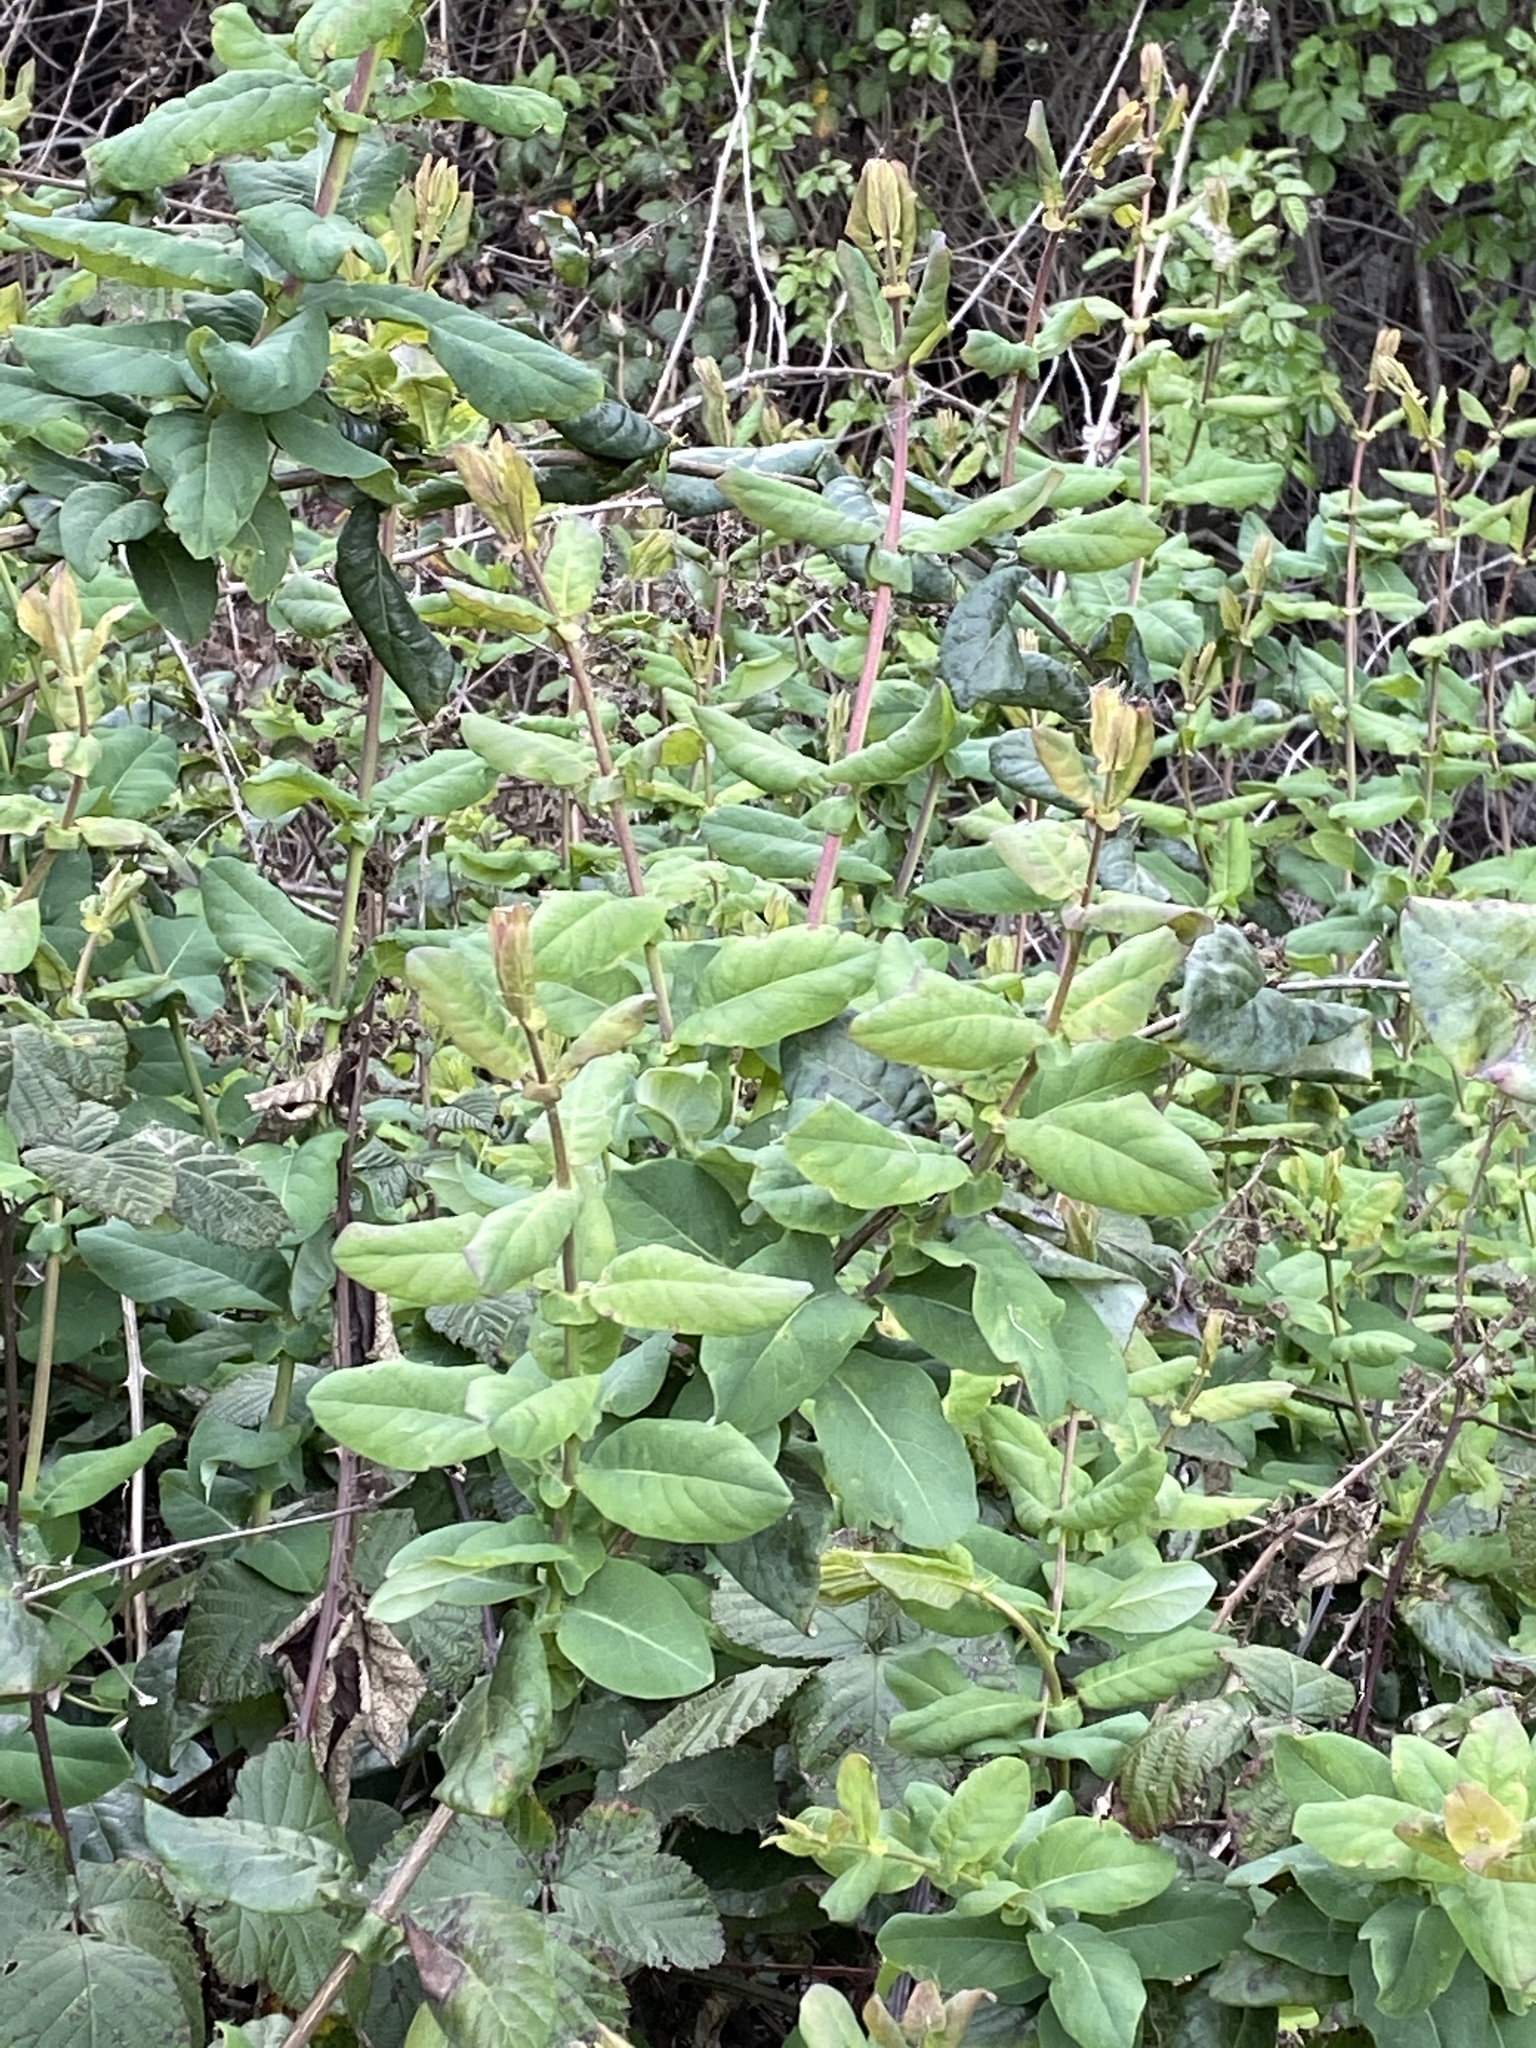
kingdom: Plantae
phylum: Tracheophyta
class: Magnoliopsida
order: Dipsacales
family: Caprifoliaceae
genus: Lonicera
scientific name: Lonicera hispidula
